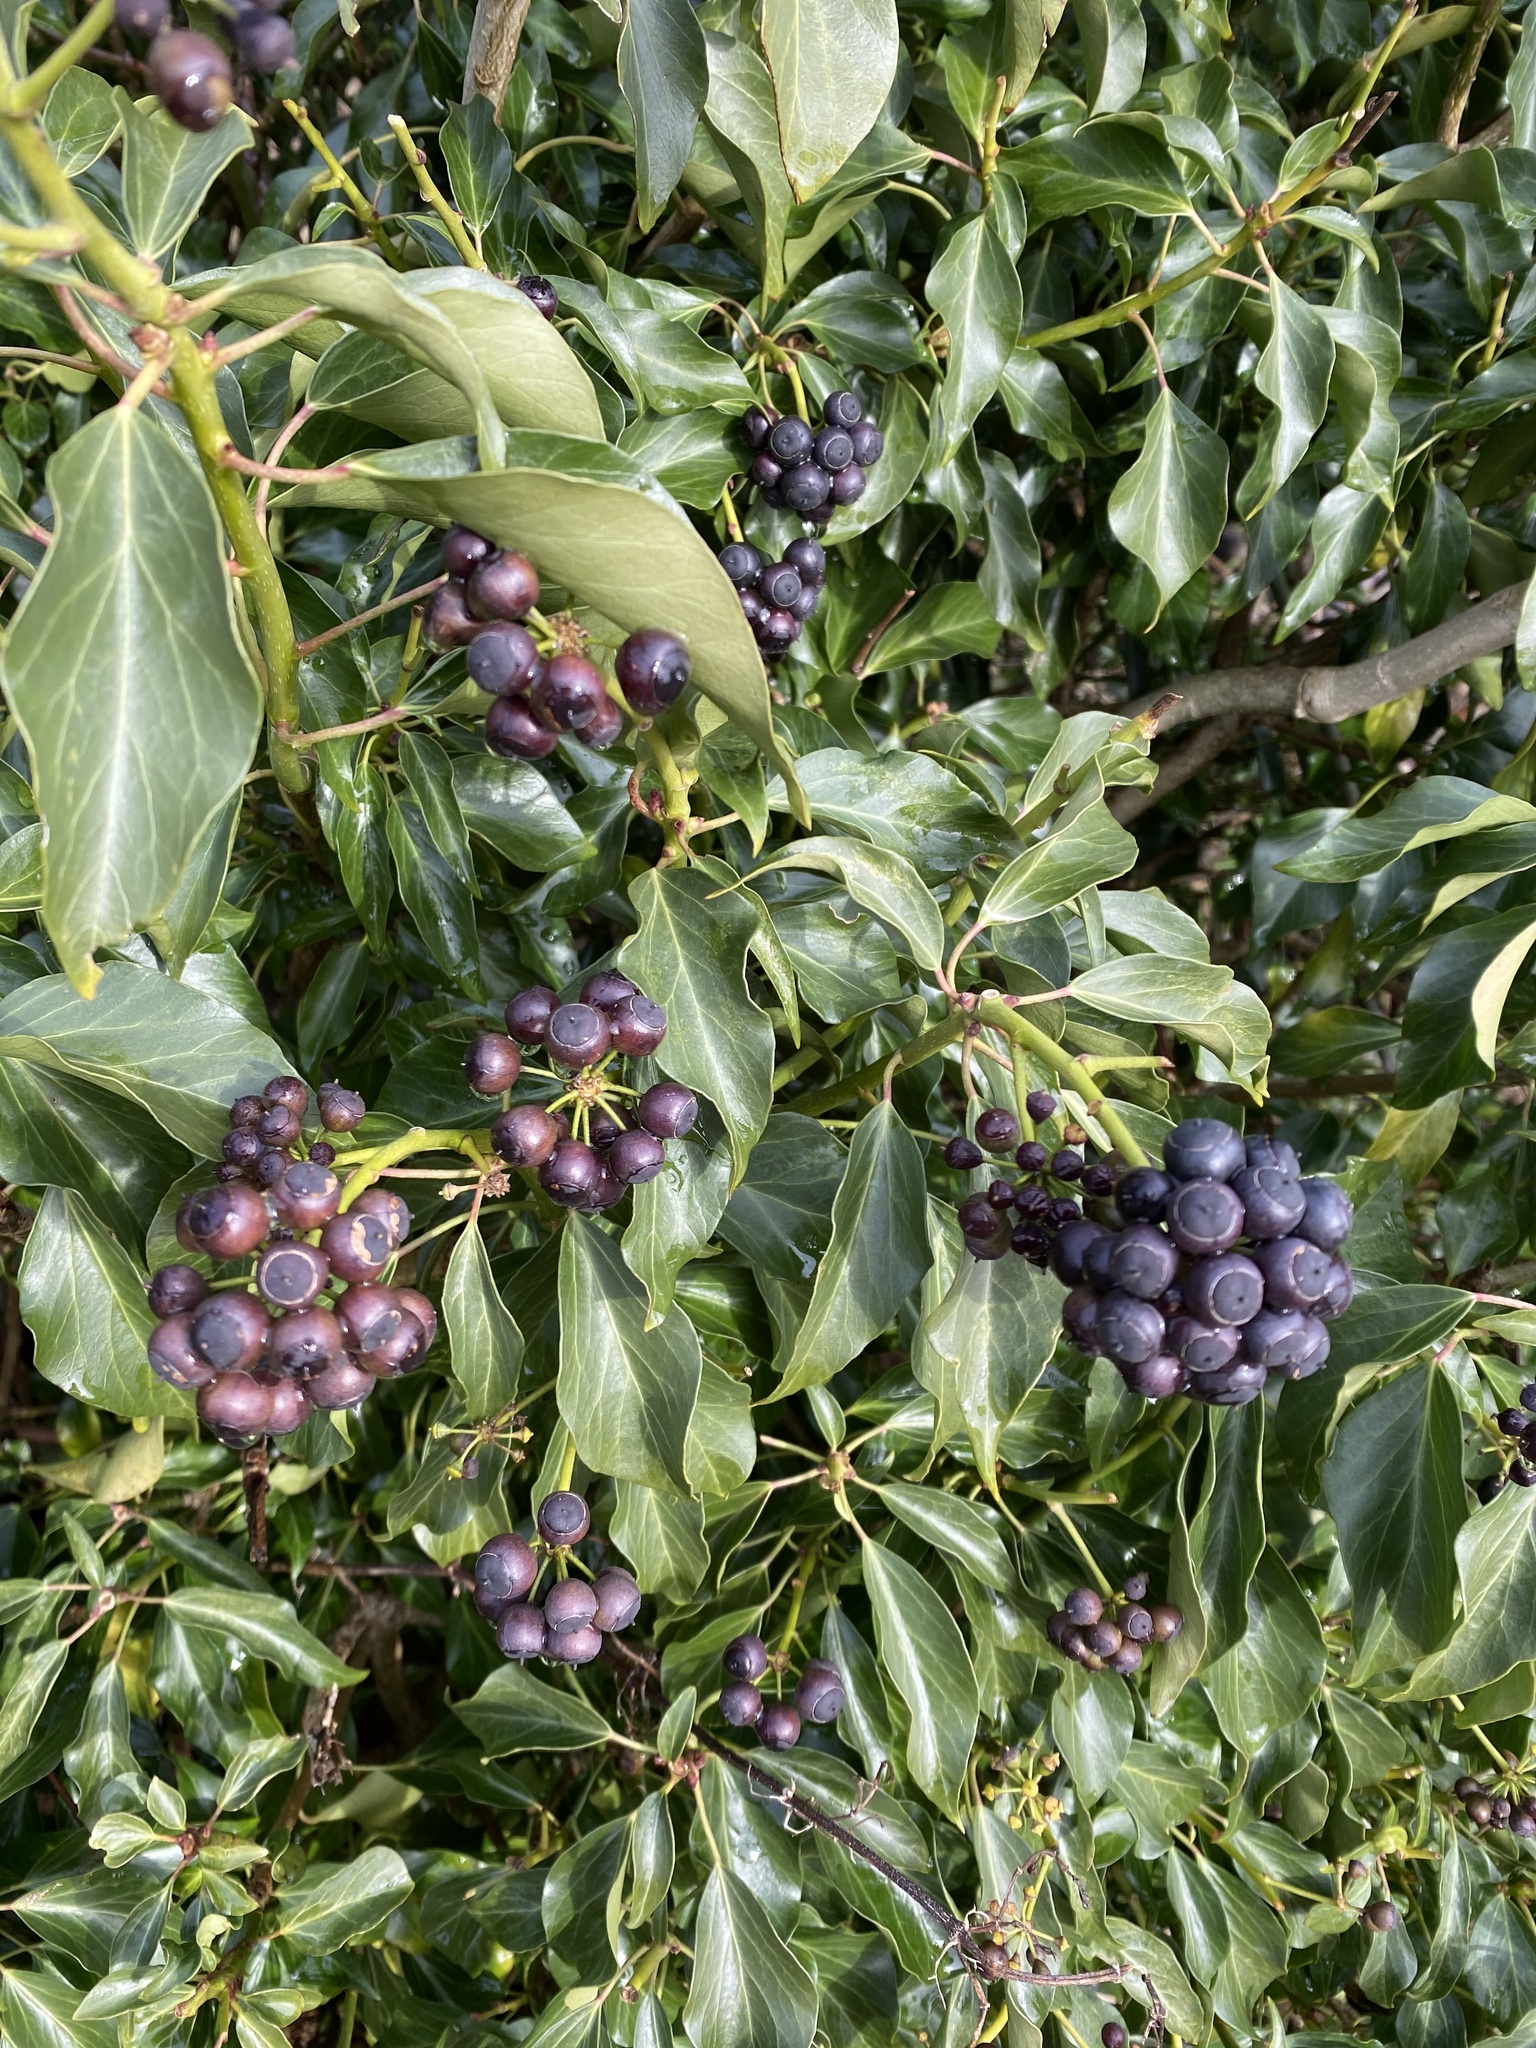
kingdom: Plantae
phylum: Tracheophyta
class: Magnoliopsida
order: Apiales
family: Araliaceae
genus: Hedera
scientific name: Hedera helix
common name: Ivy
